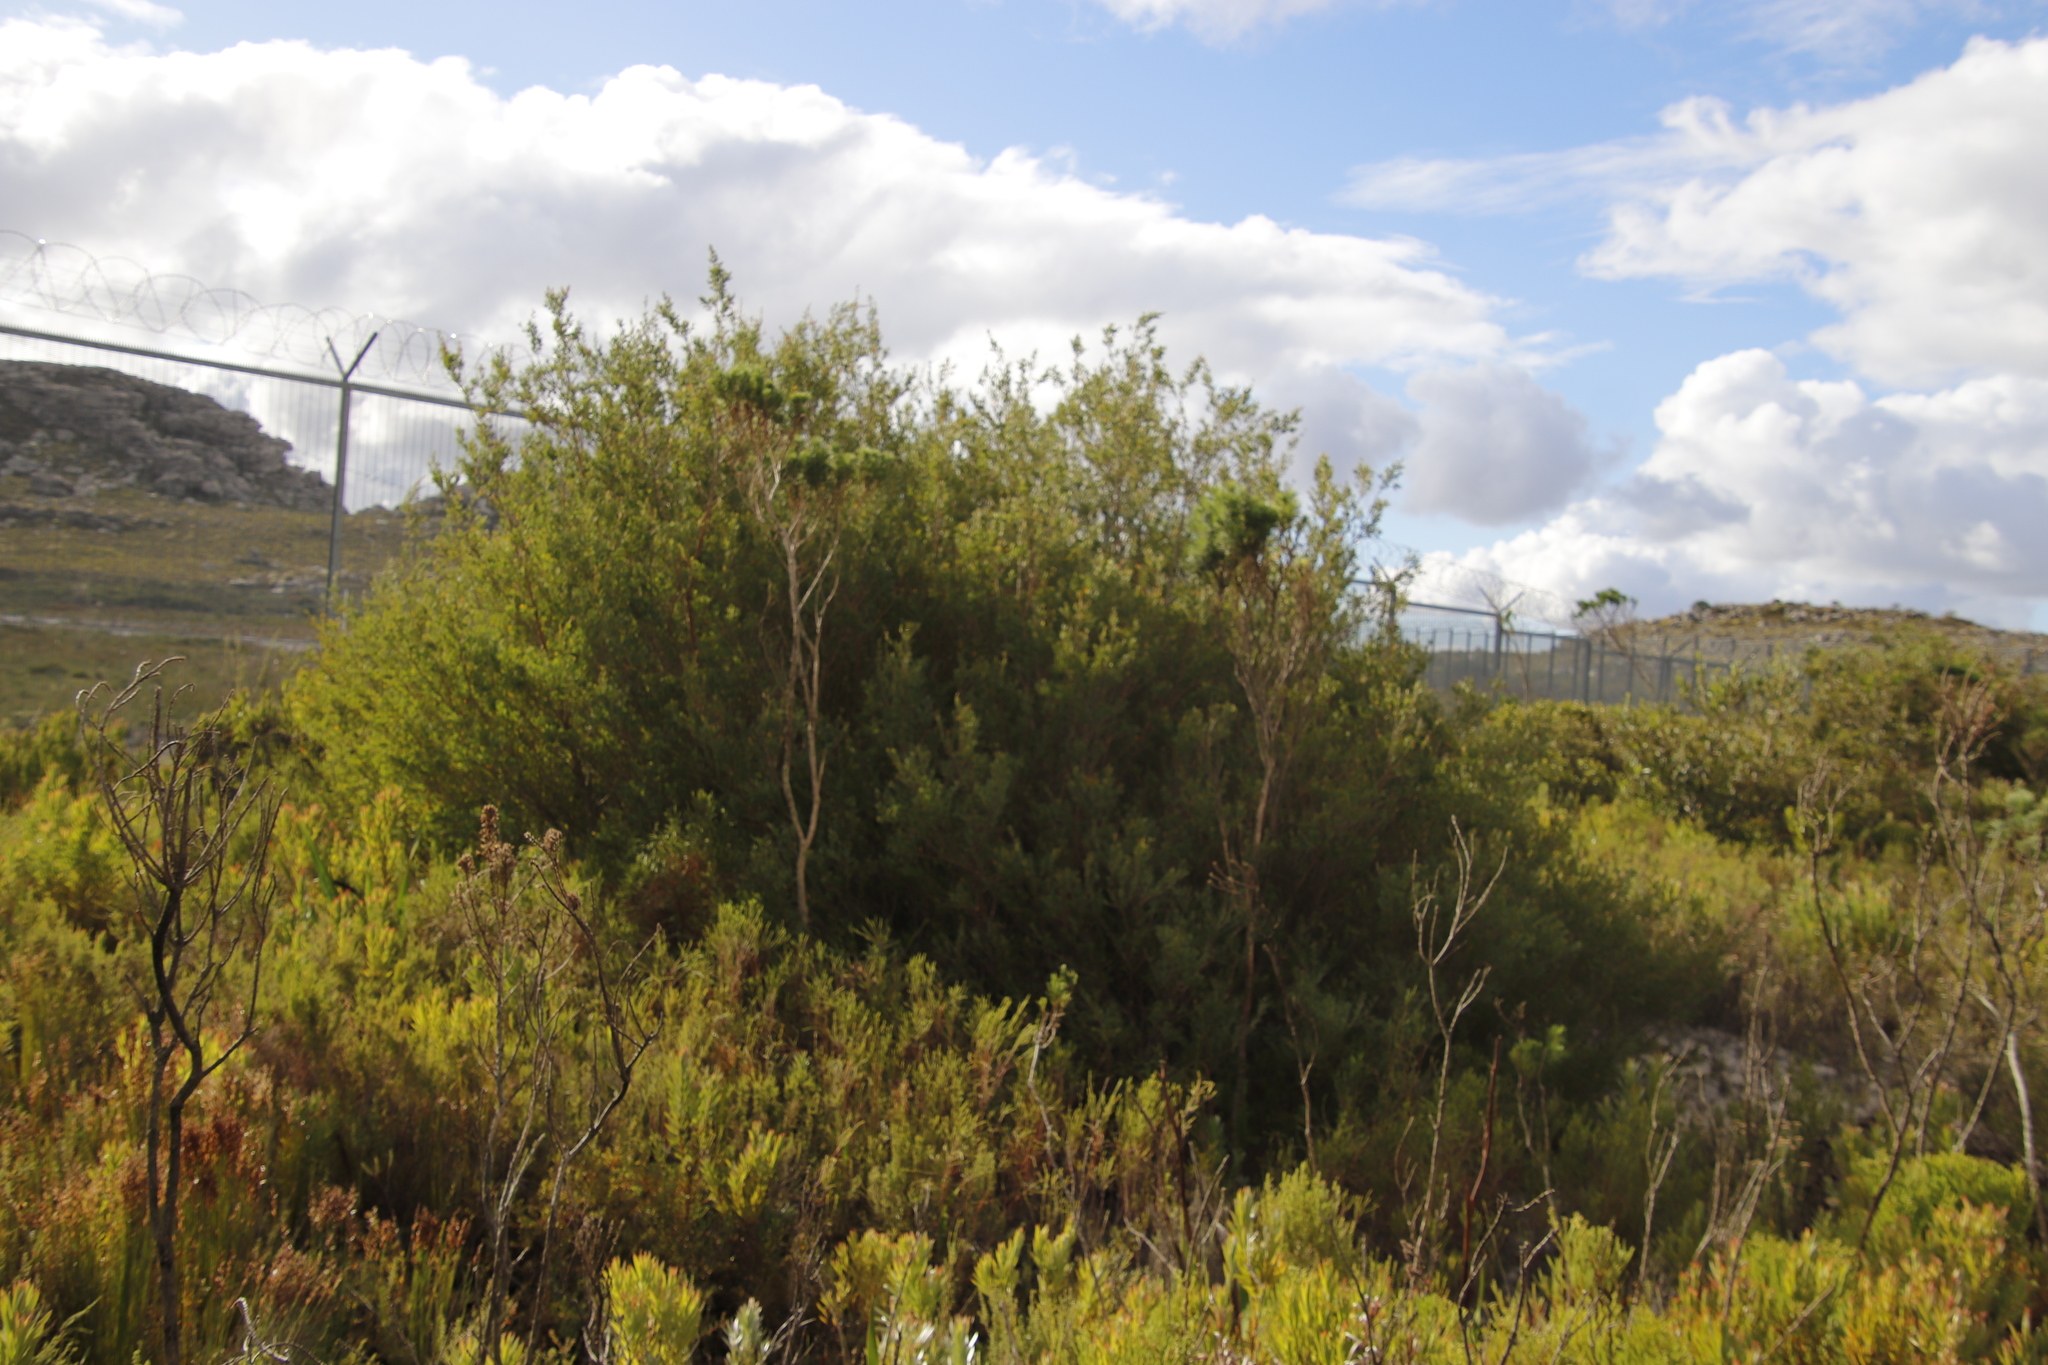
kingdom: Plantae
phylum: Tracheophyta
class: Magnoliopsida
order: Myrtales
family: Myrtaceae
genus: Leptospermum
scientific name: Leptospermum laevigatum
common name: Australian teatree
